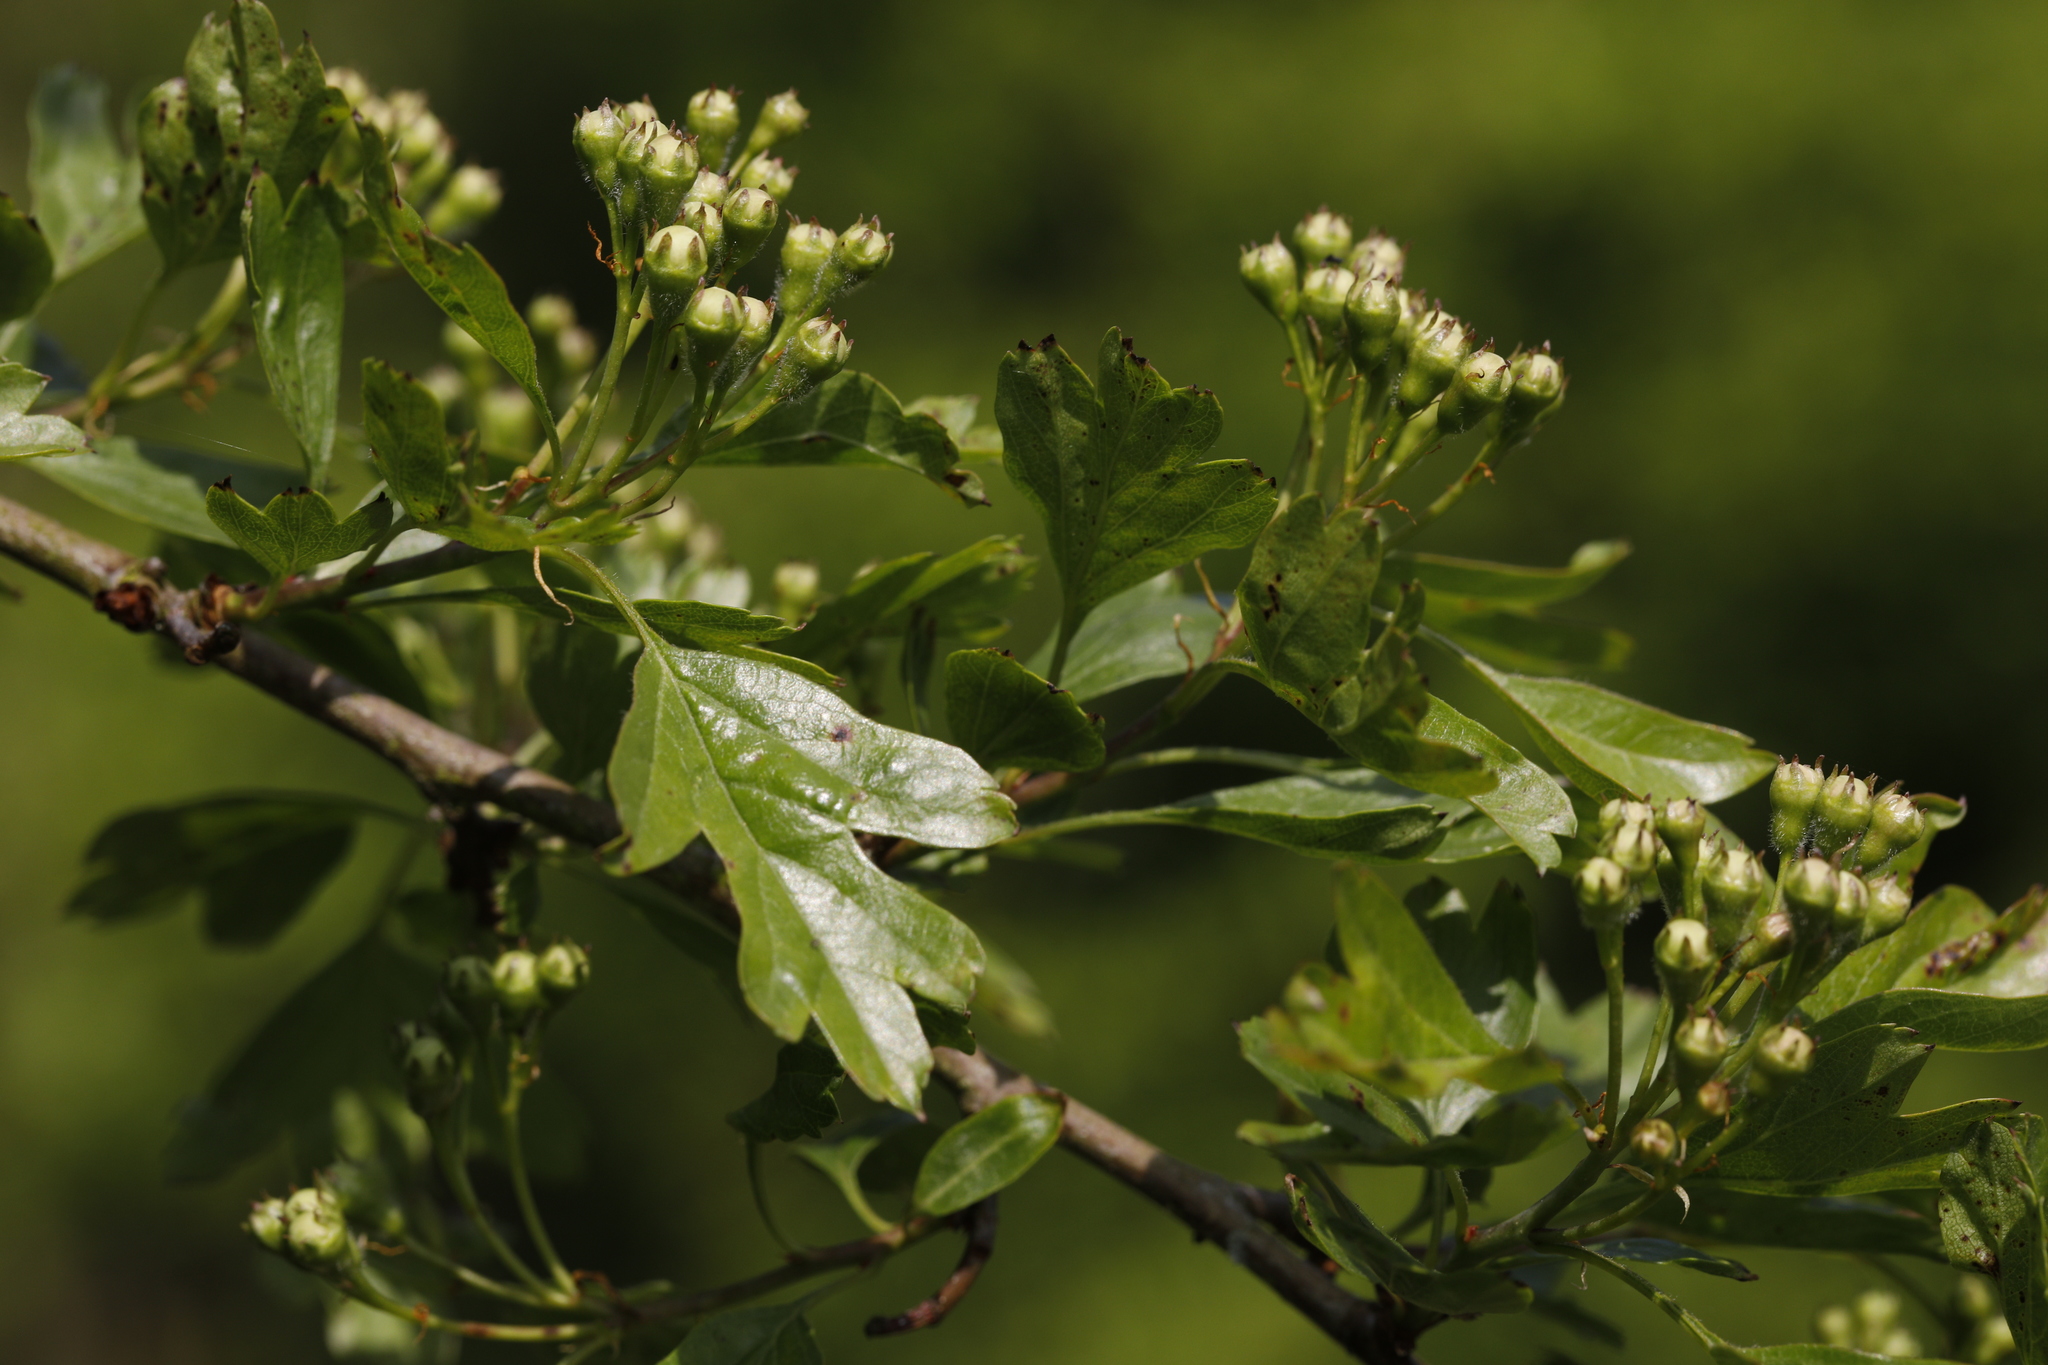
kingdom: Plantae
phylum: Tracheophyta
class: Magnoliopsida
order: Rosales
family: Rosaceae
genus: Crataegus
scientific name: Crataegus monogyna
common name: Hawthorn
